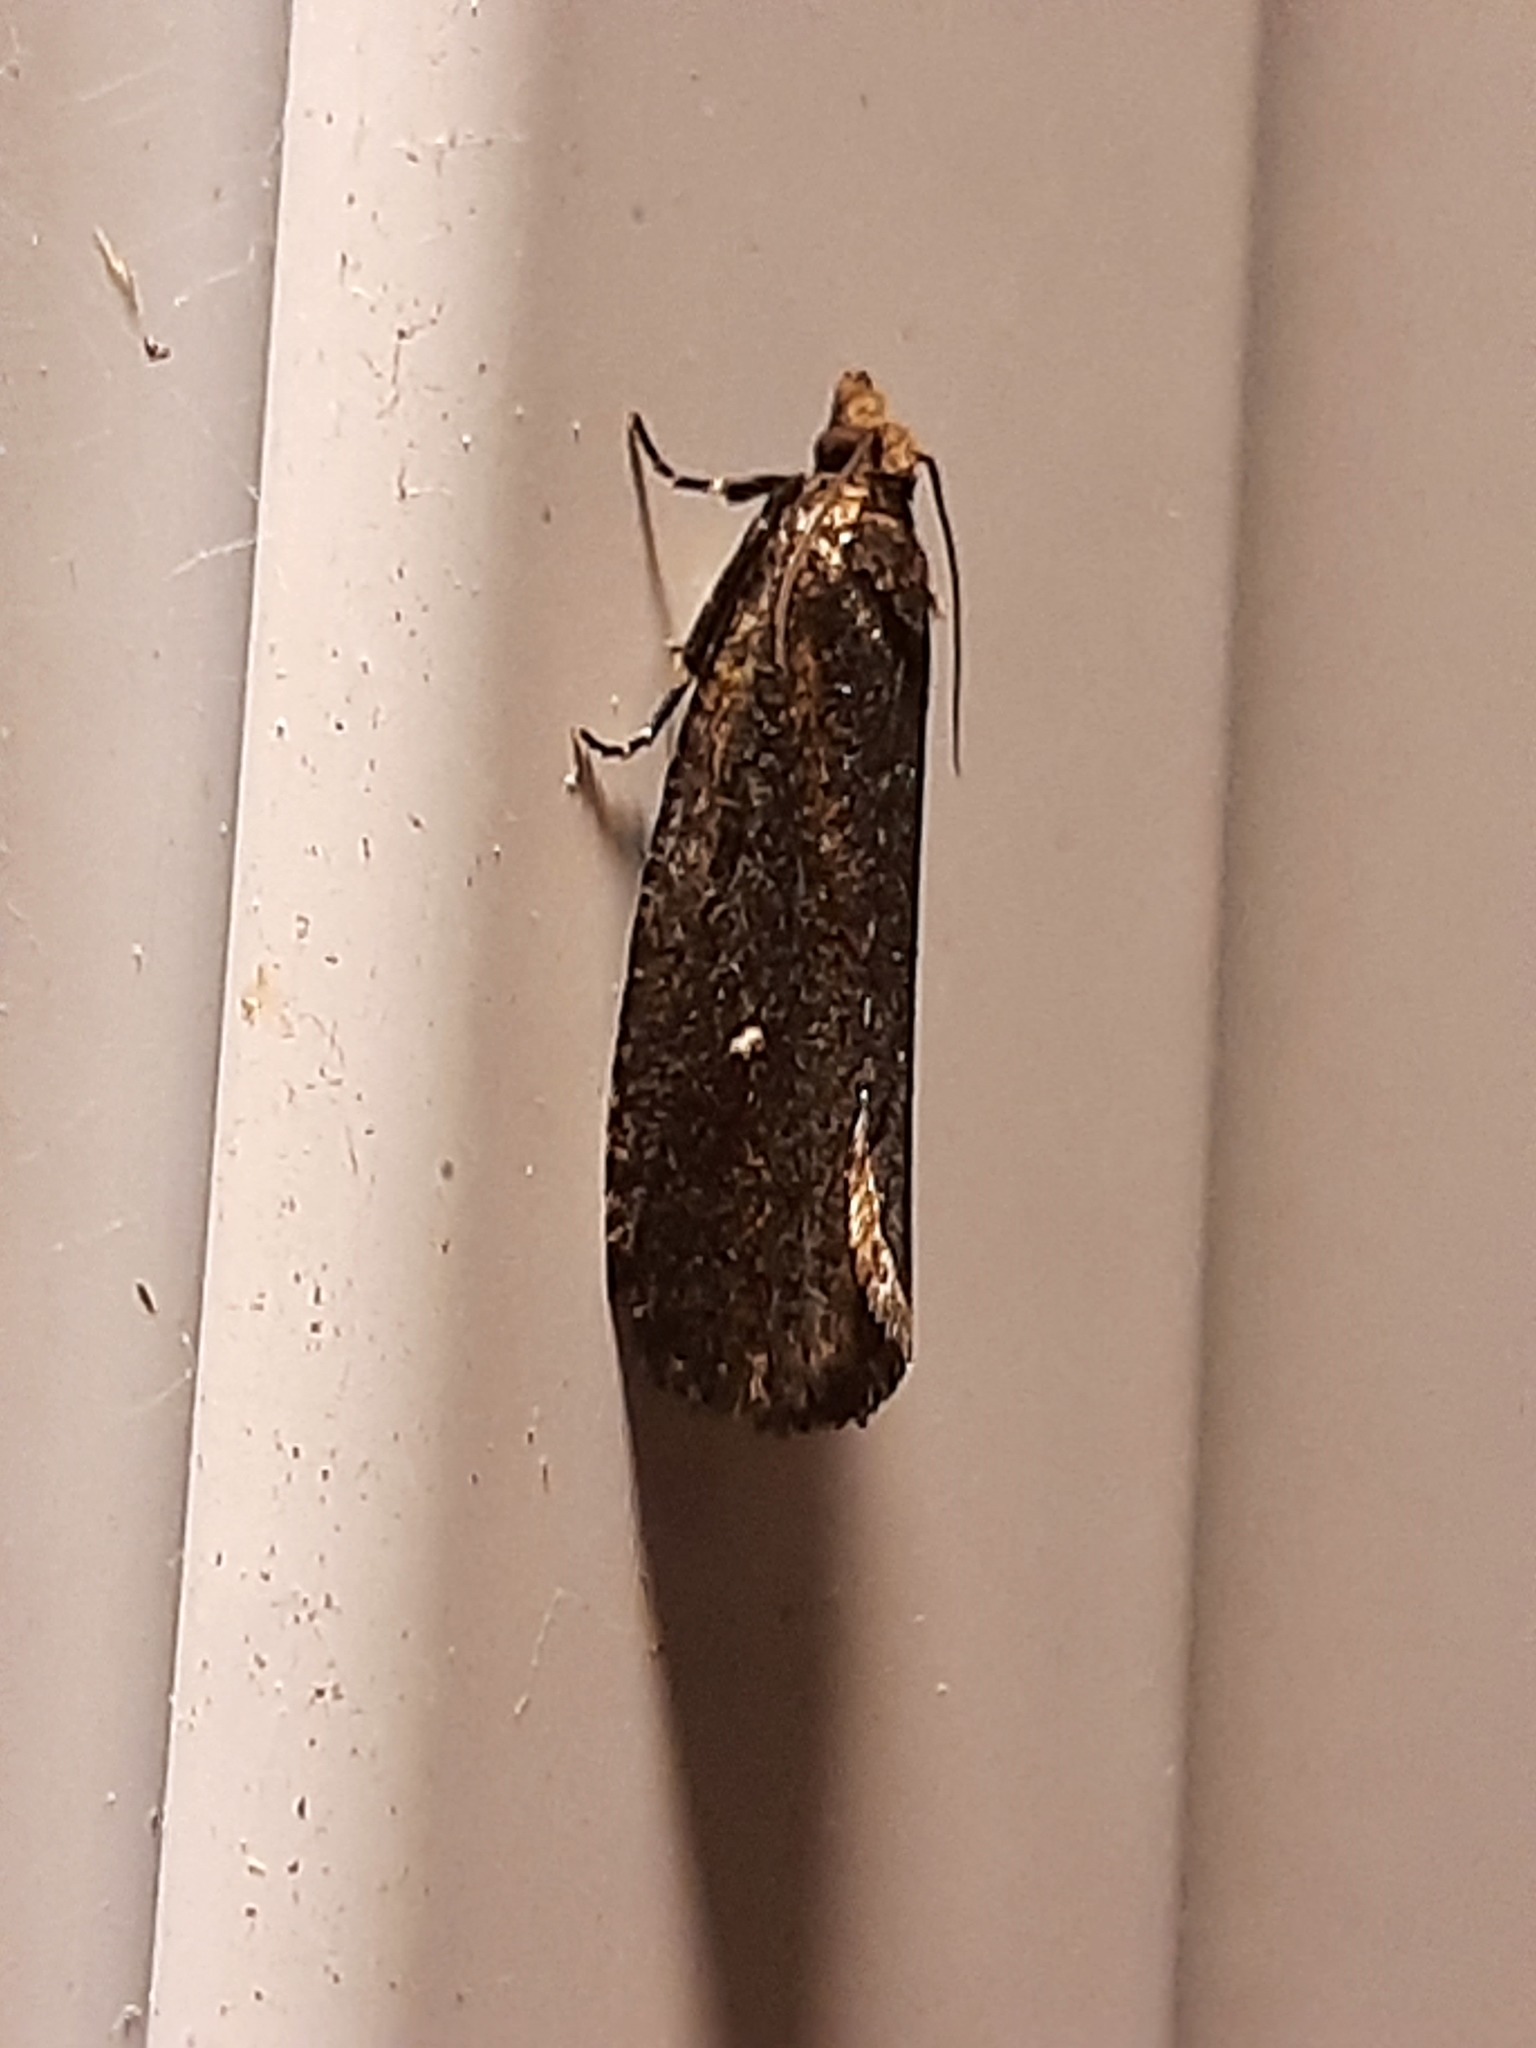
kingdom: Animalia
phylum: Arthropoda
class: Insecta
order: Lepidoptera
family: Tortricidae
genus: Cryptaspasma
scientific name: Cryptaspasma querula
